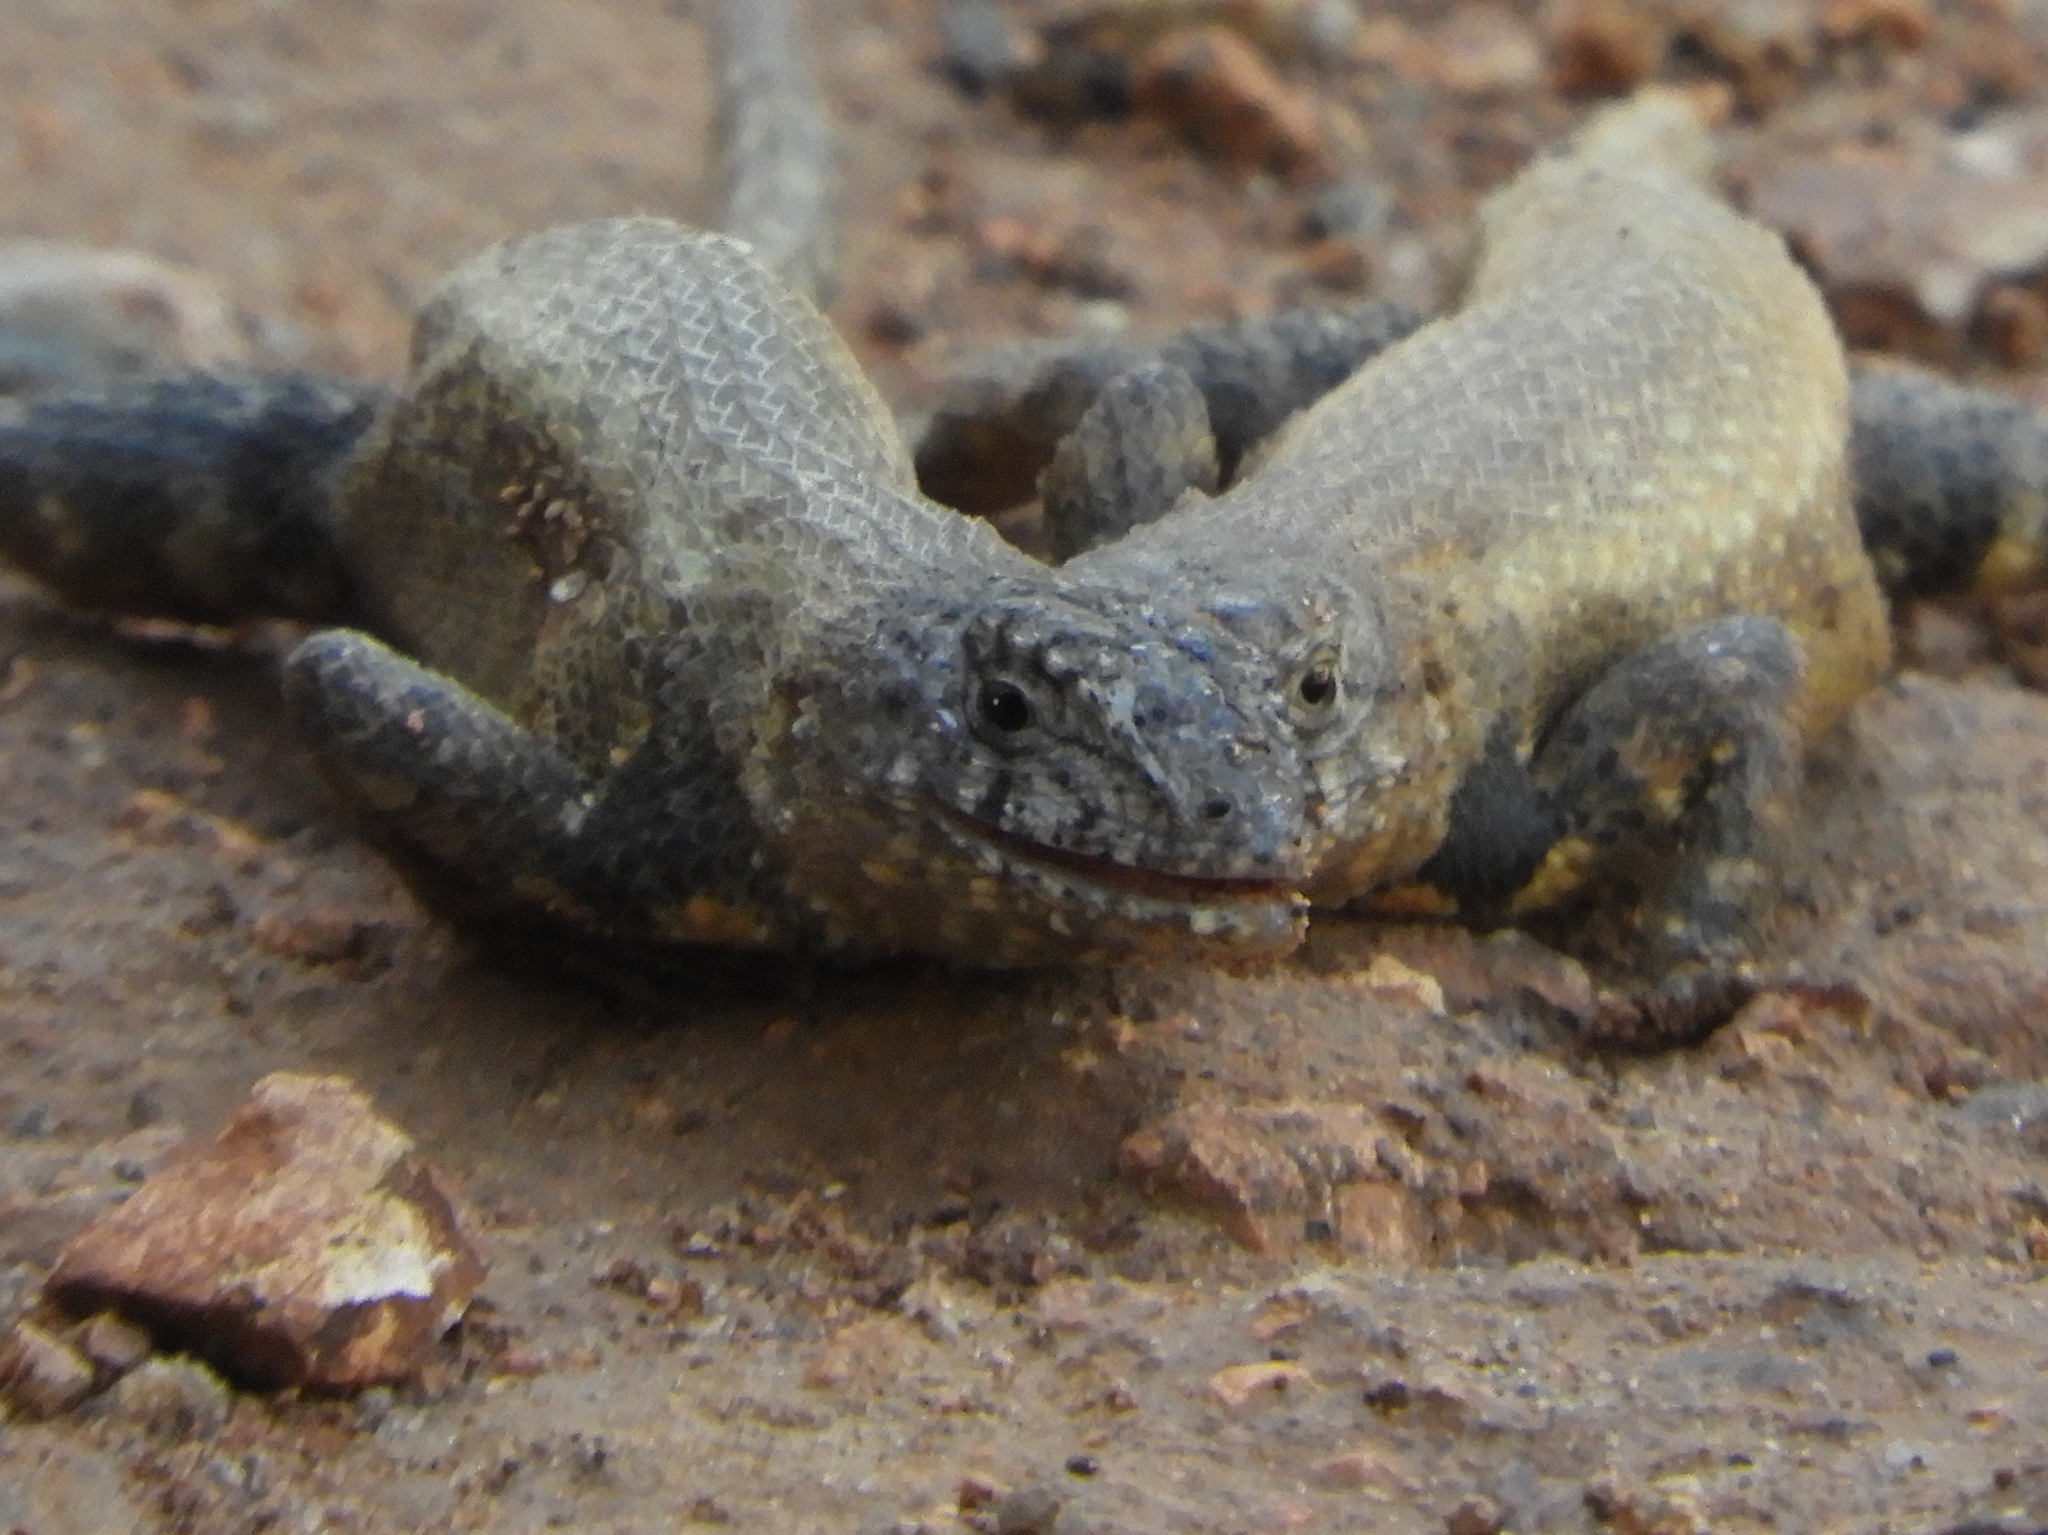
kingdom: Animalia
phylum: Chordata
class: Squamata
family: Phrynosomatidae
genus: Sceloporus
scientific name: Sceloporus nelsoni
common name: Nelson's spiny lizard
